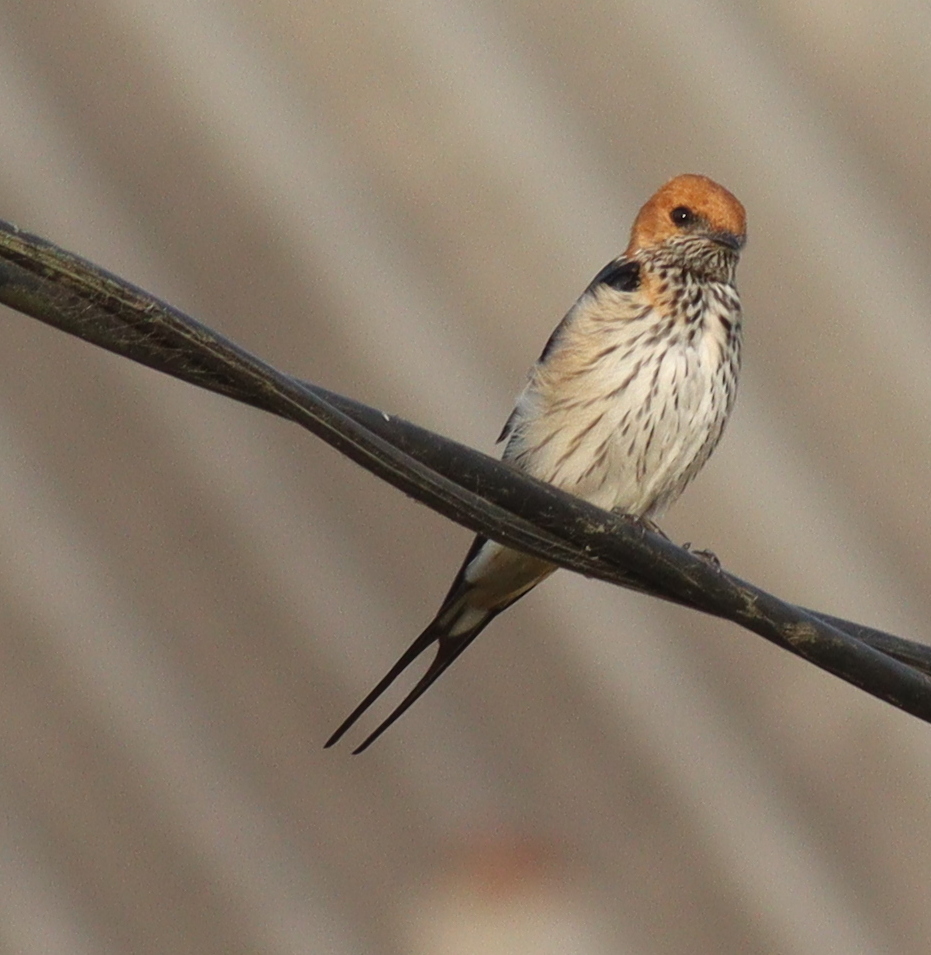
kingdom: Animalia
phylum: Chordata
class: Aves
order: Passeriformes
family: Hirundinidae
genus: Cecropis
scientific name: Cecropis abyssinica
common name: Lesser striped-swallow
